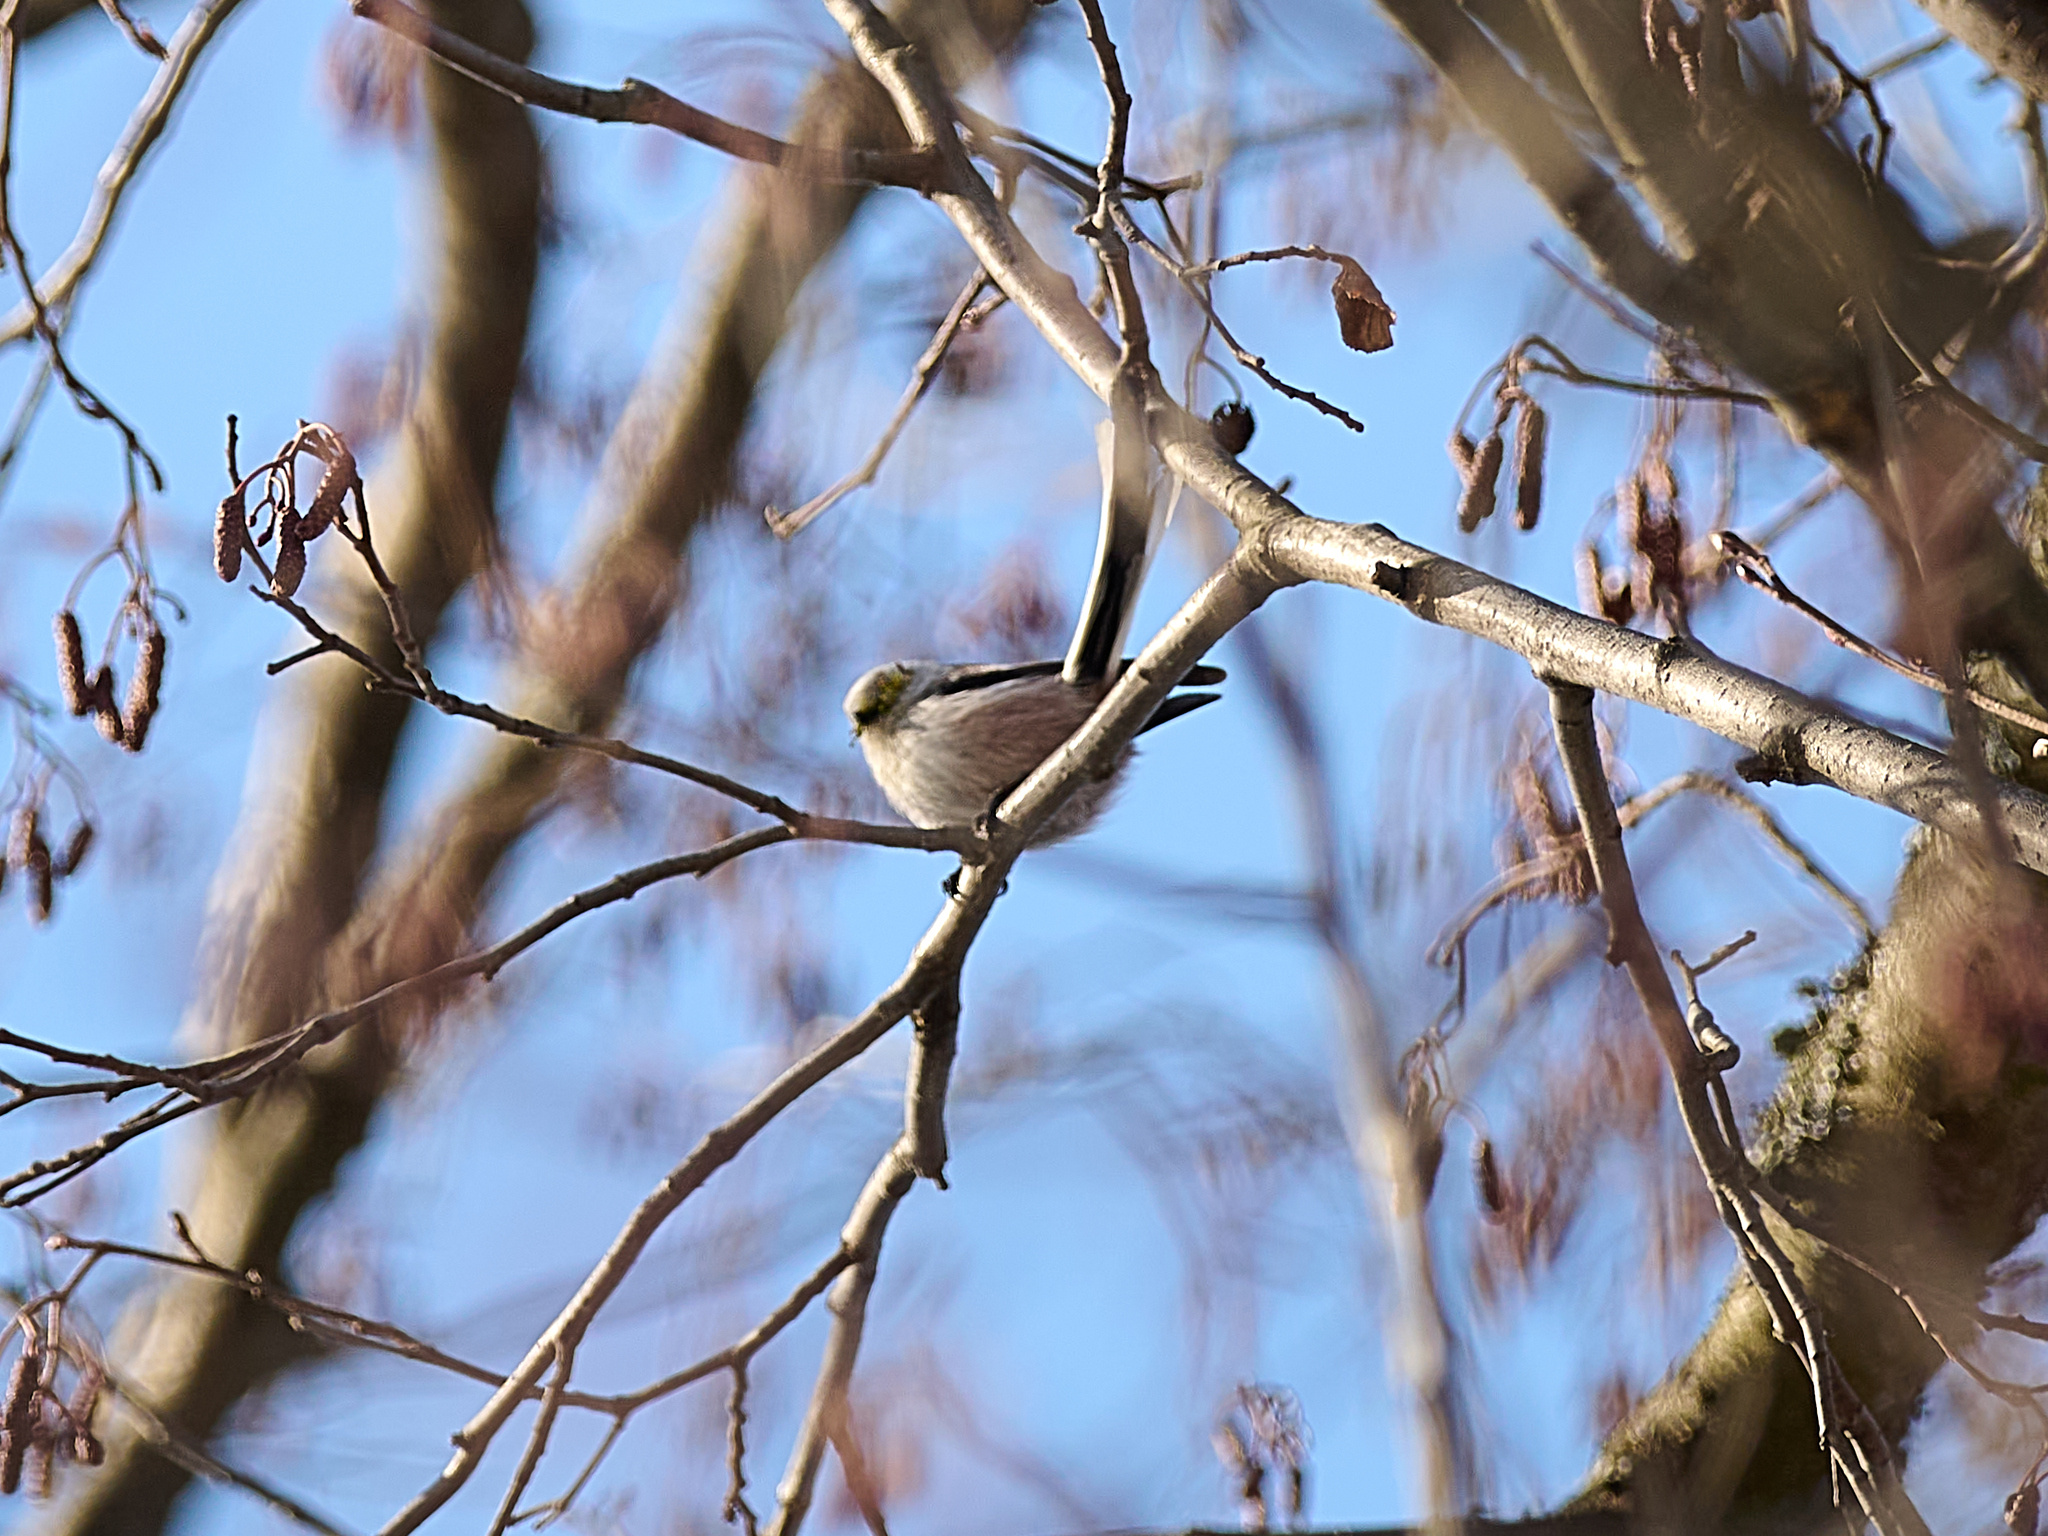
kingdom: Animalia
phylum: Chordata
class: Aves
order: Passeriformes
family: Aegithalidae
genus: Aegithalos
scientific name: Aegithalos caudatus
